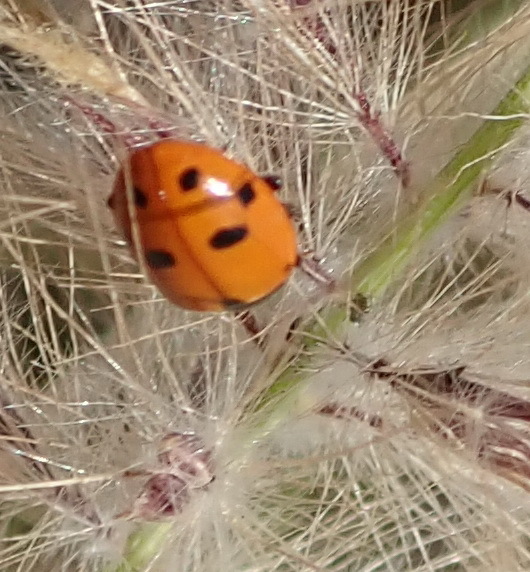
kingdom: Animalia
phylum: Arthropoda
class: Insecta
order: Coleoptera
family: Coccinellidae
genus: Hippodamia
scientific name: Hippodamia variegata
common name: Ladybird beetle
